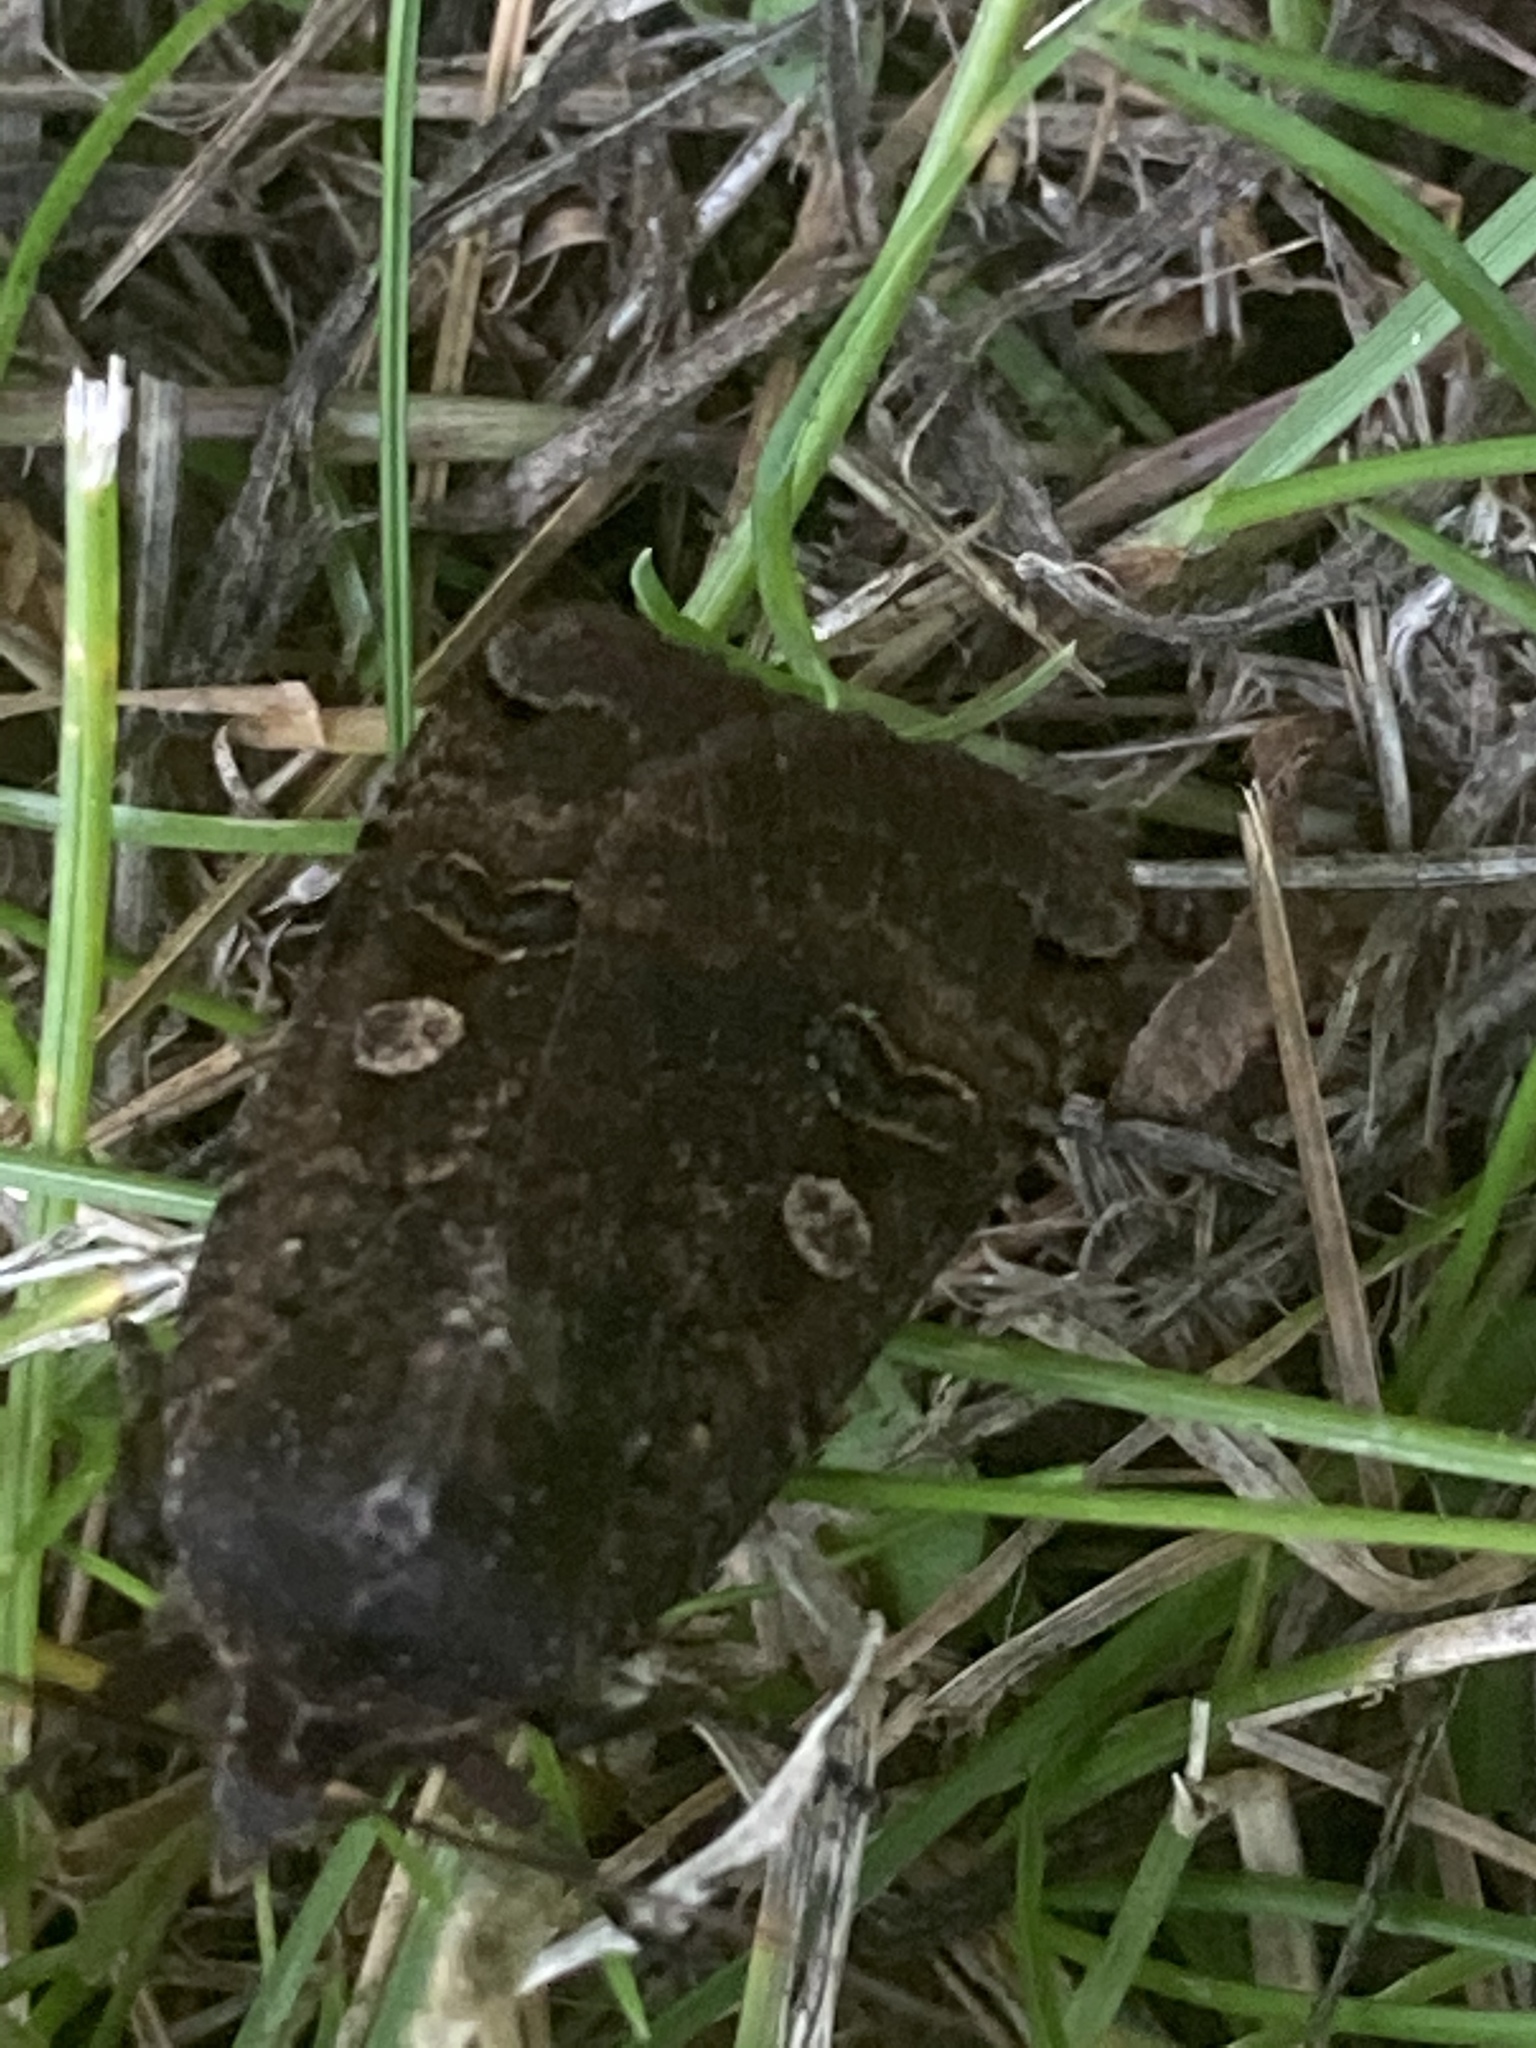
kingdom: Animalia
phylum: Arthropoda
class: Insecta
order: Lepidoptera
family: Noctuidae
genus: Noctua
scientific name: Noctua pronuba
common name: Large yellow underwing
